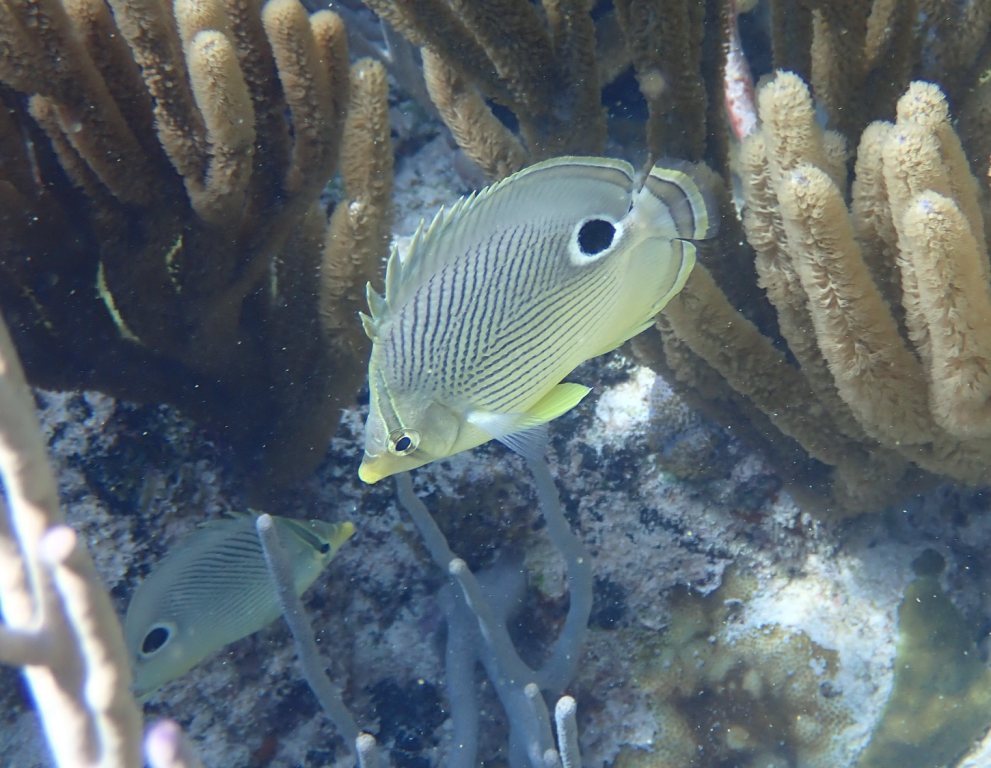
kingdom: Animalia
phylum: Chordata
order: Perciformes
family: Chaetodontidae
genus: Chaetodon
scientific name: Chaetodon capistratus
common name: Kete
